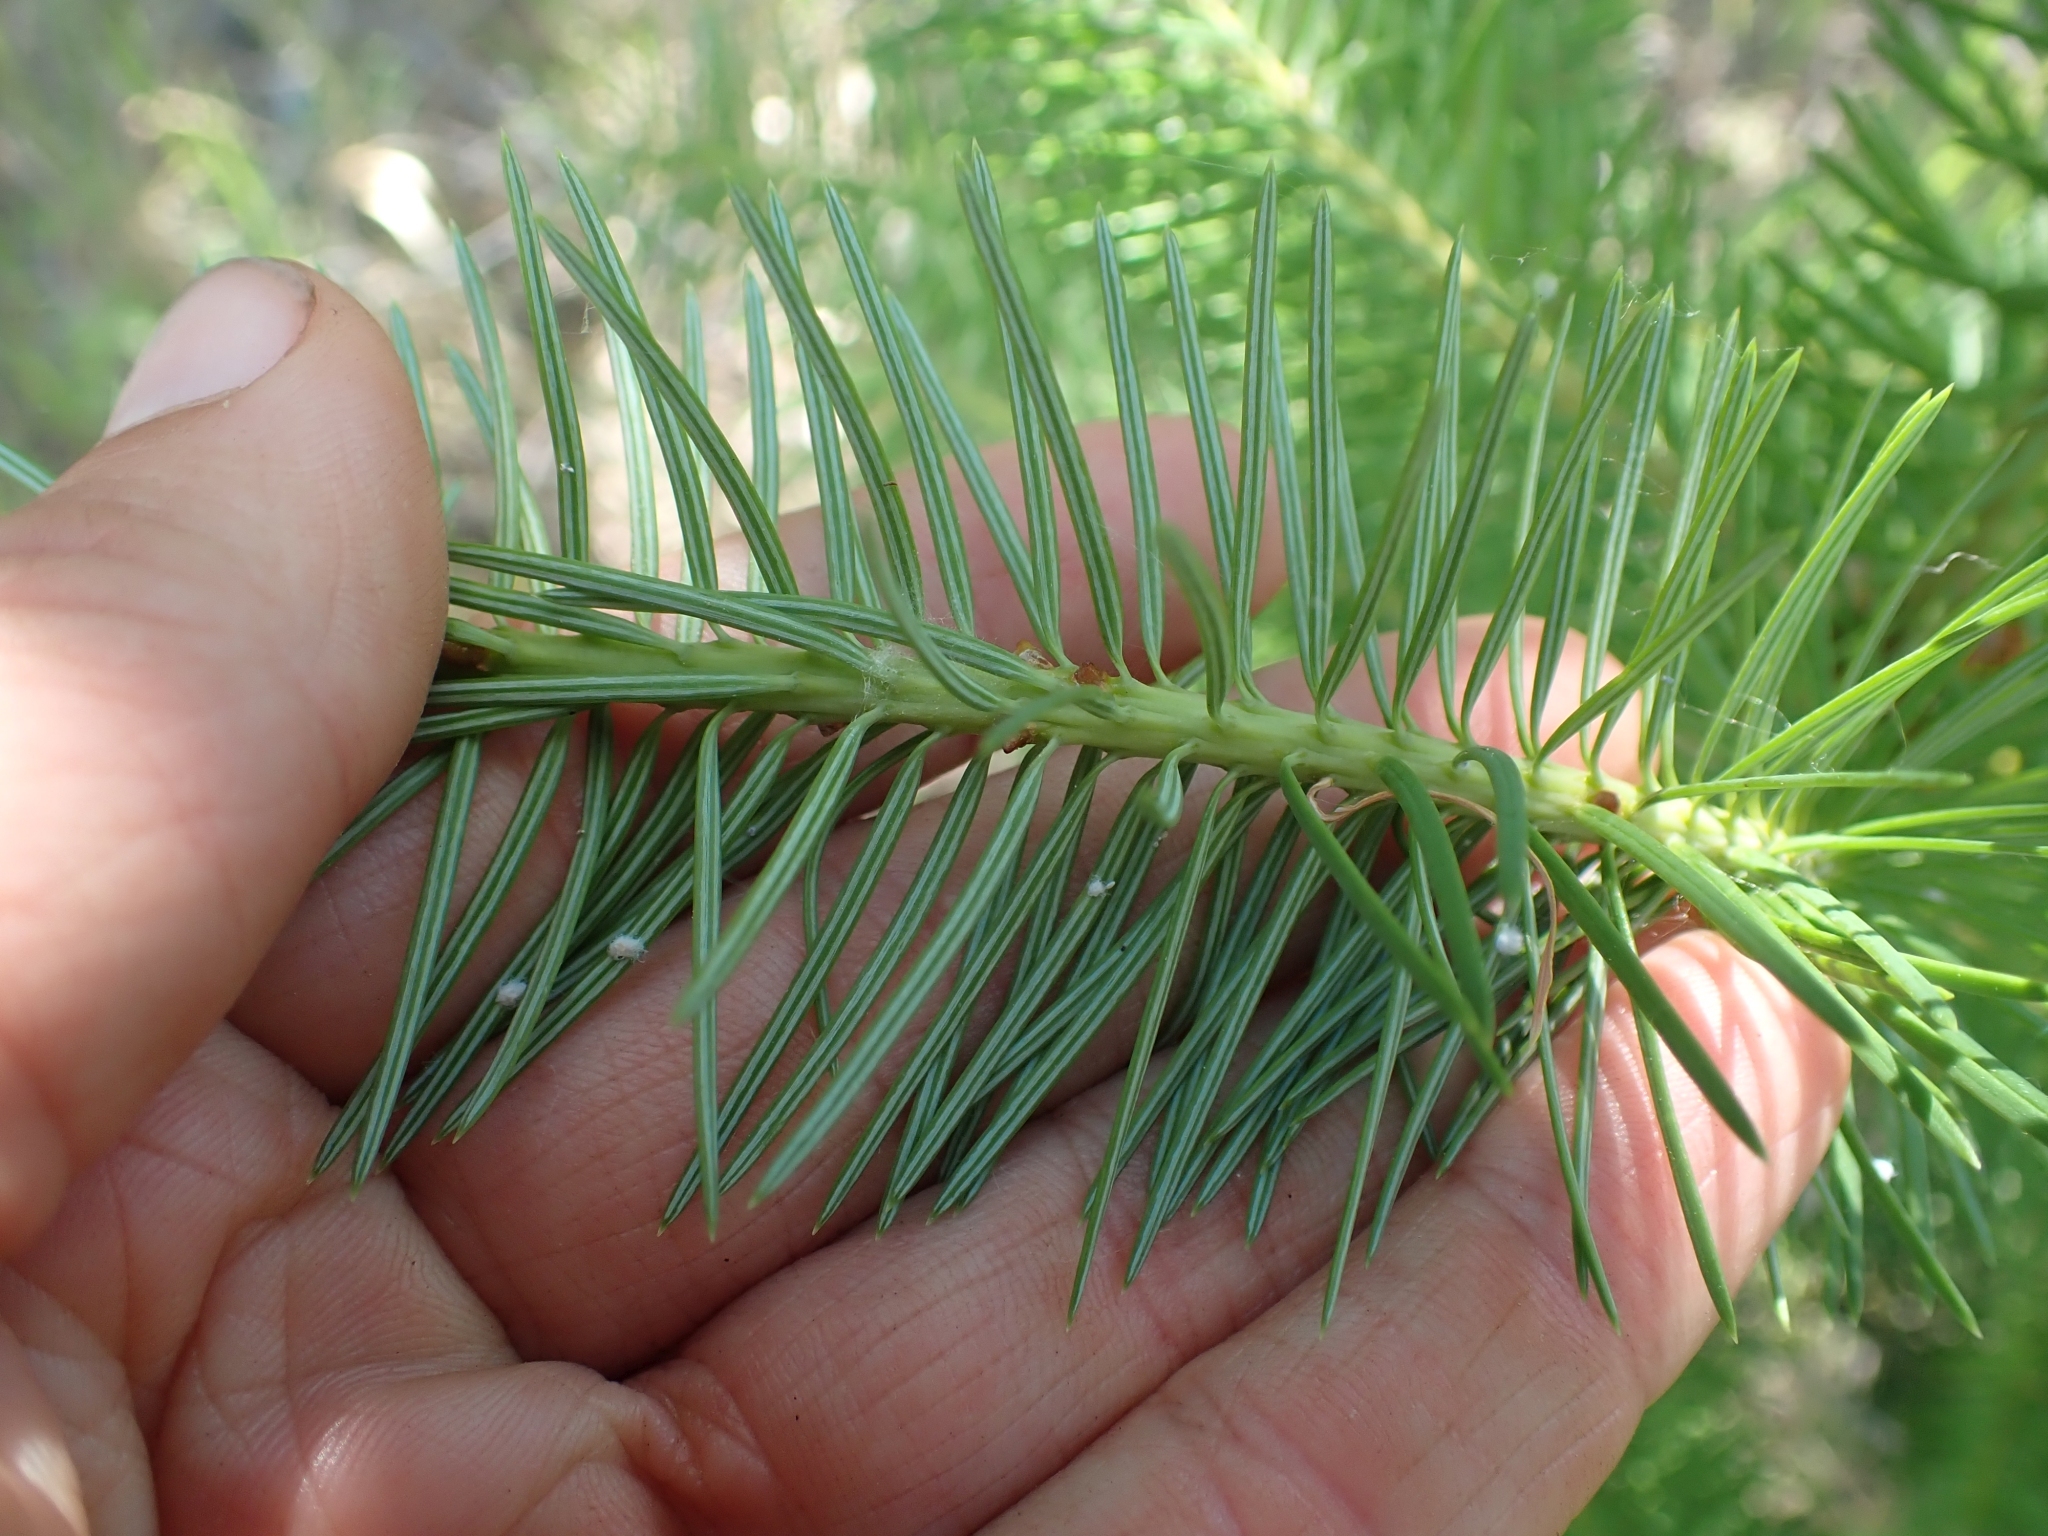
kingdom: Plantae
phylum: Tracheophyta
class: Pinopsida
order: Pinales
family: Pinaceae
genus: Pseudotsuga
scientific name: Pseudotsuga menziesii
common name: Douglas fir
